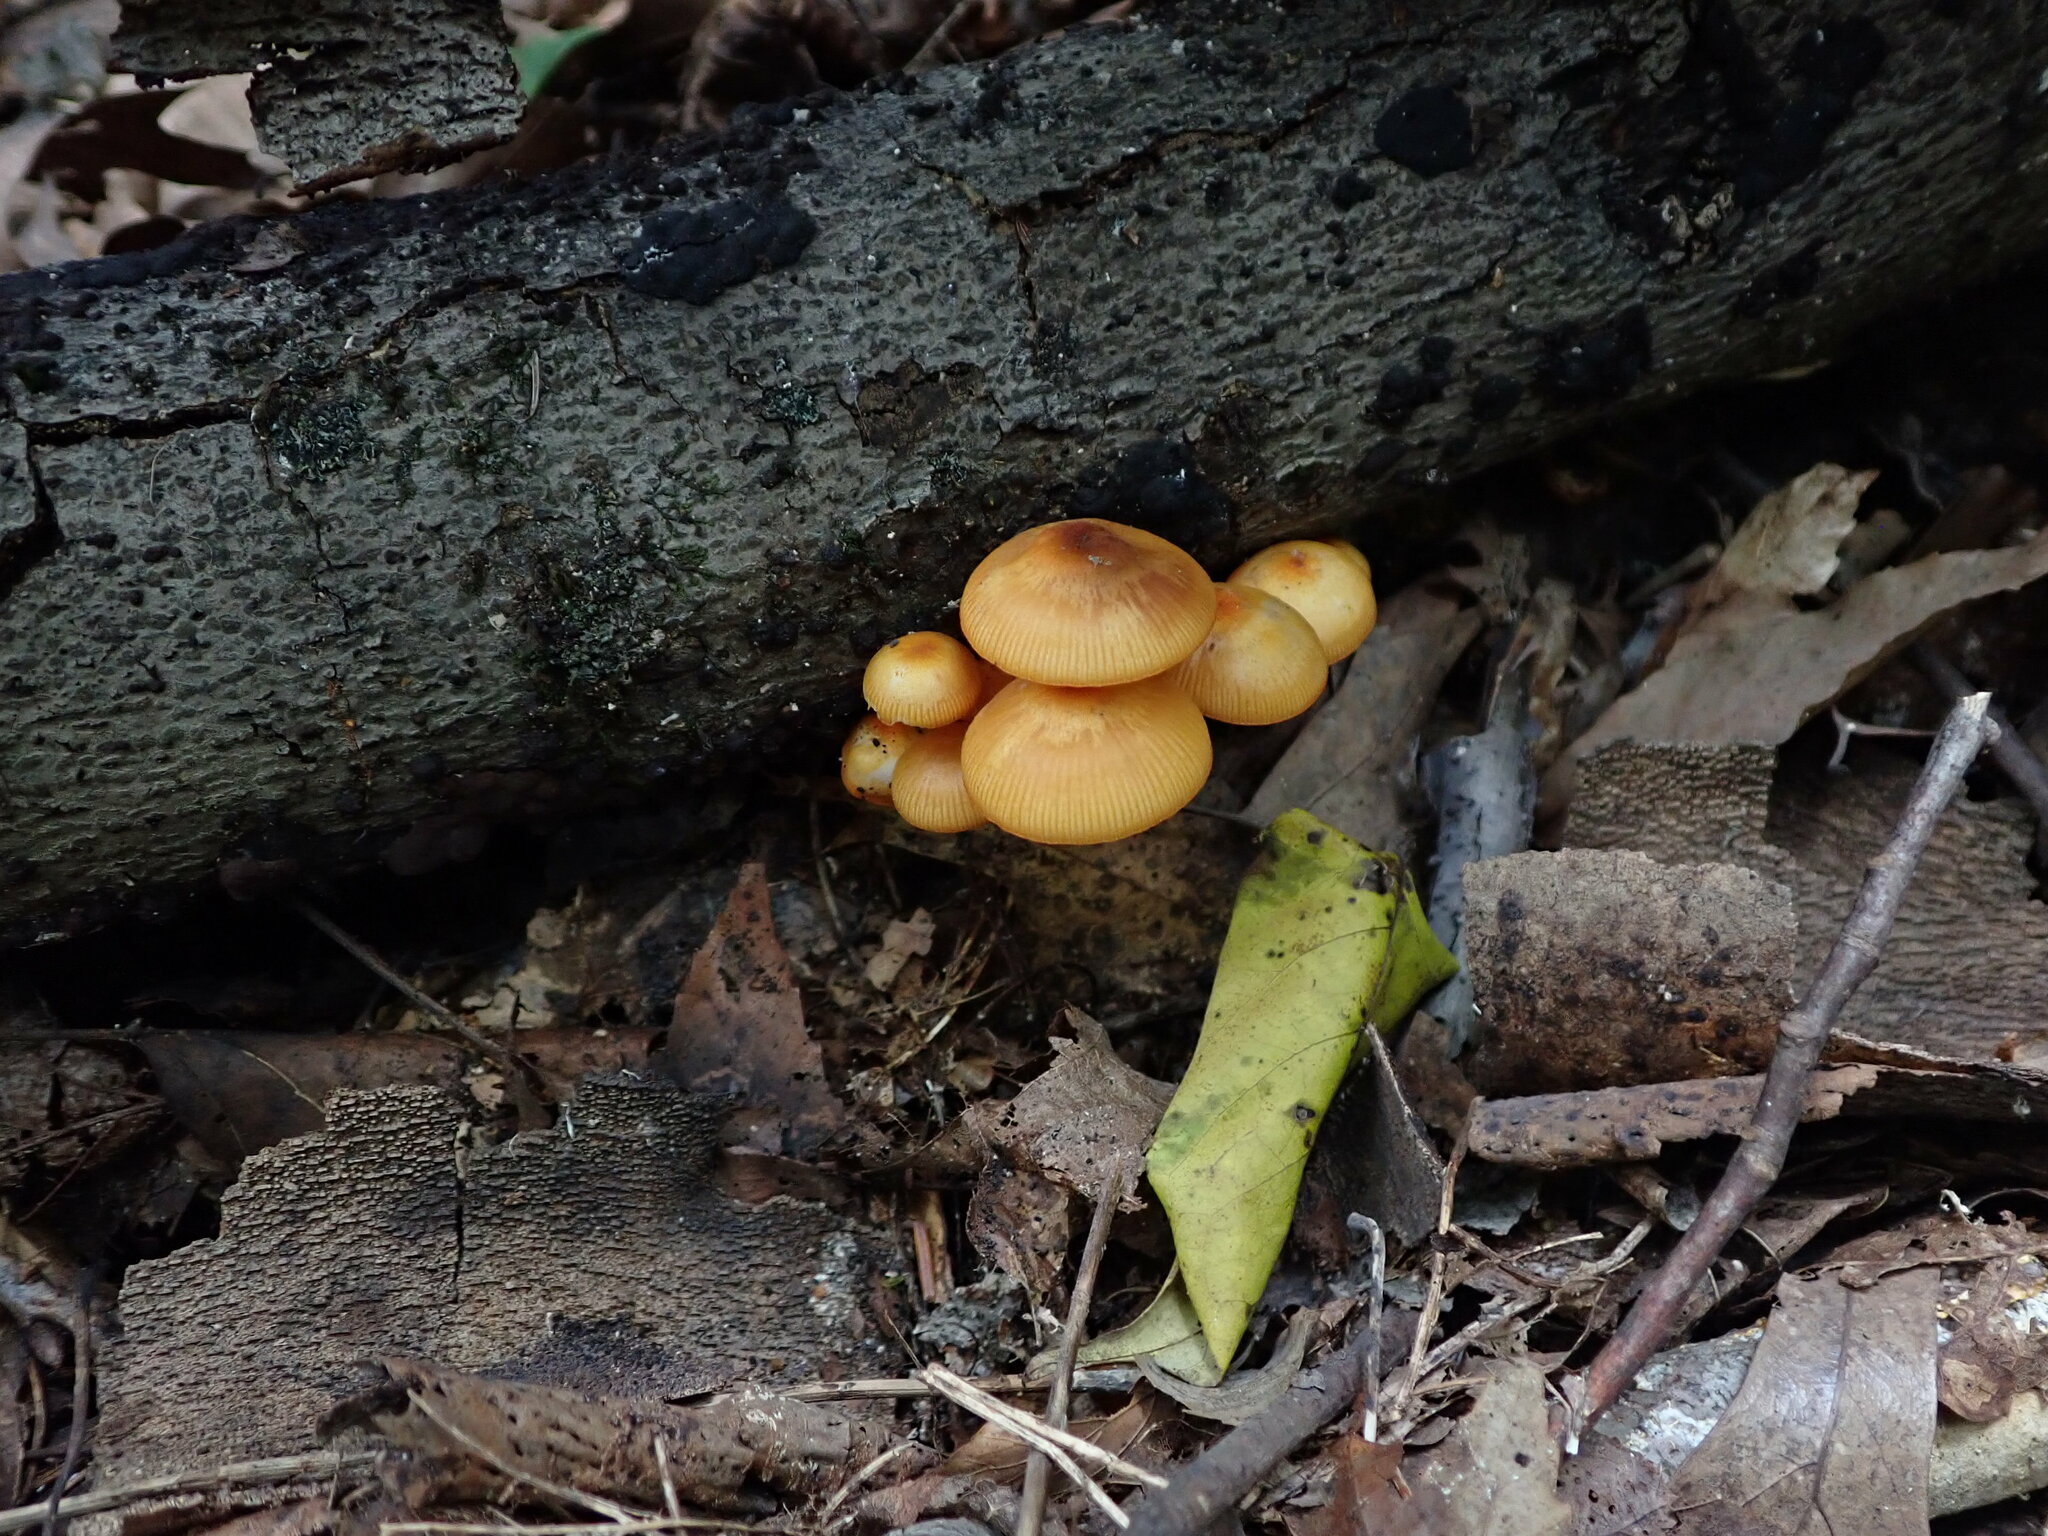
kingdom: Fungi
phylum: Basidiomycota
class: Agaricomycetes
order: Agaricales
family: Mycenaceae
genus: Mycena
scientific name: Mycena leaiana
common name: Orange mycena
